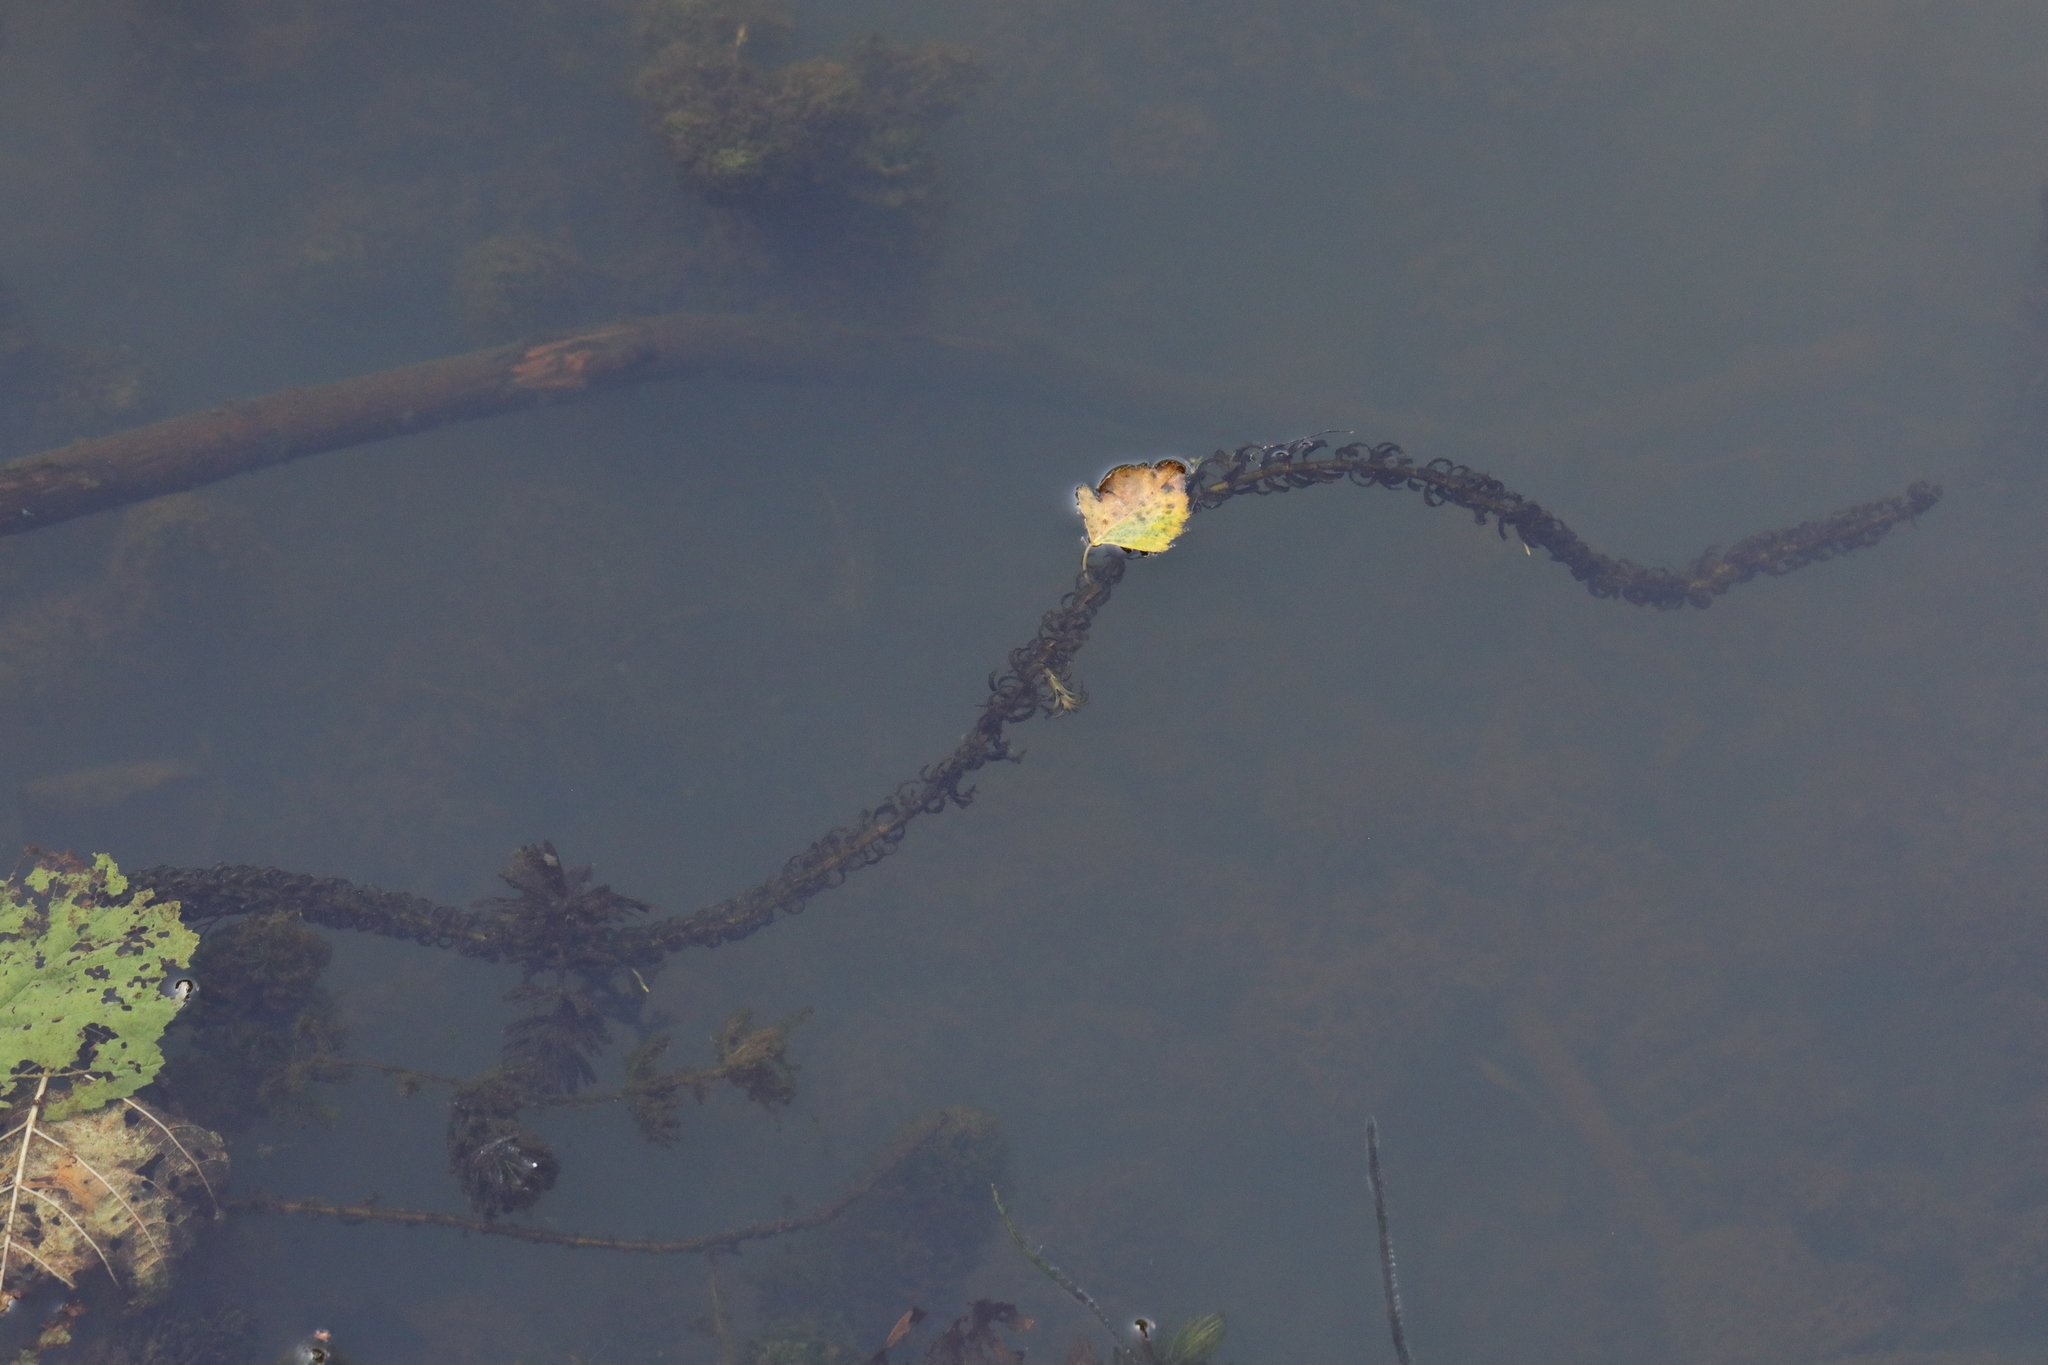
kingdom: Plantae
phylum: Tracheophyta
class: Liliopsida
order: Alismatales
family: Hydrocharitaceae
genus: Lagarosiphon
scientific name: Lagarosiphon major
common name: Curly waterweed
